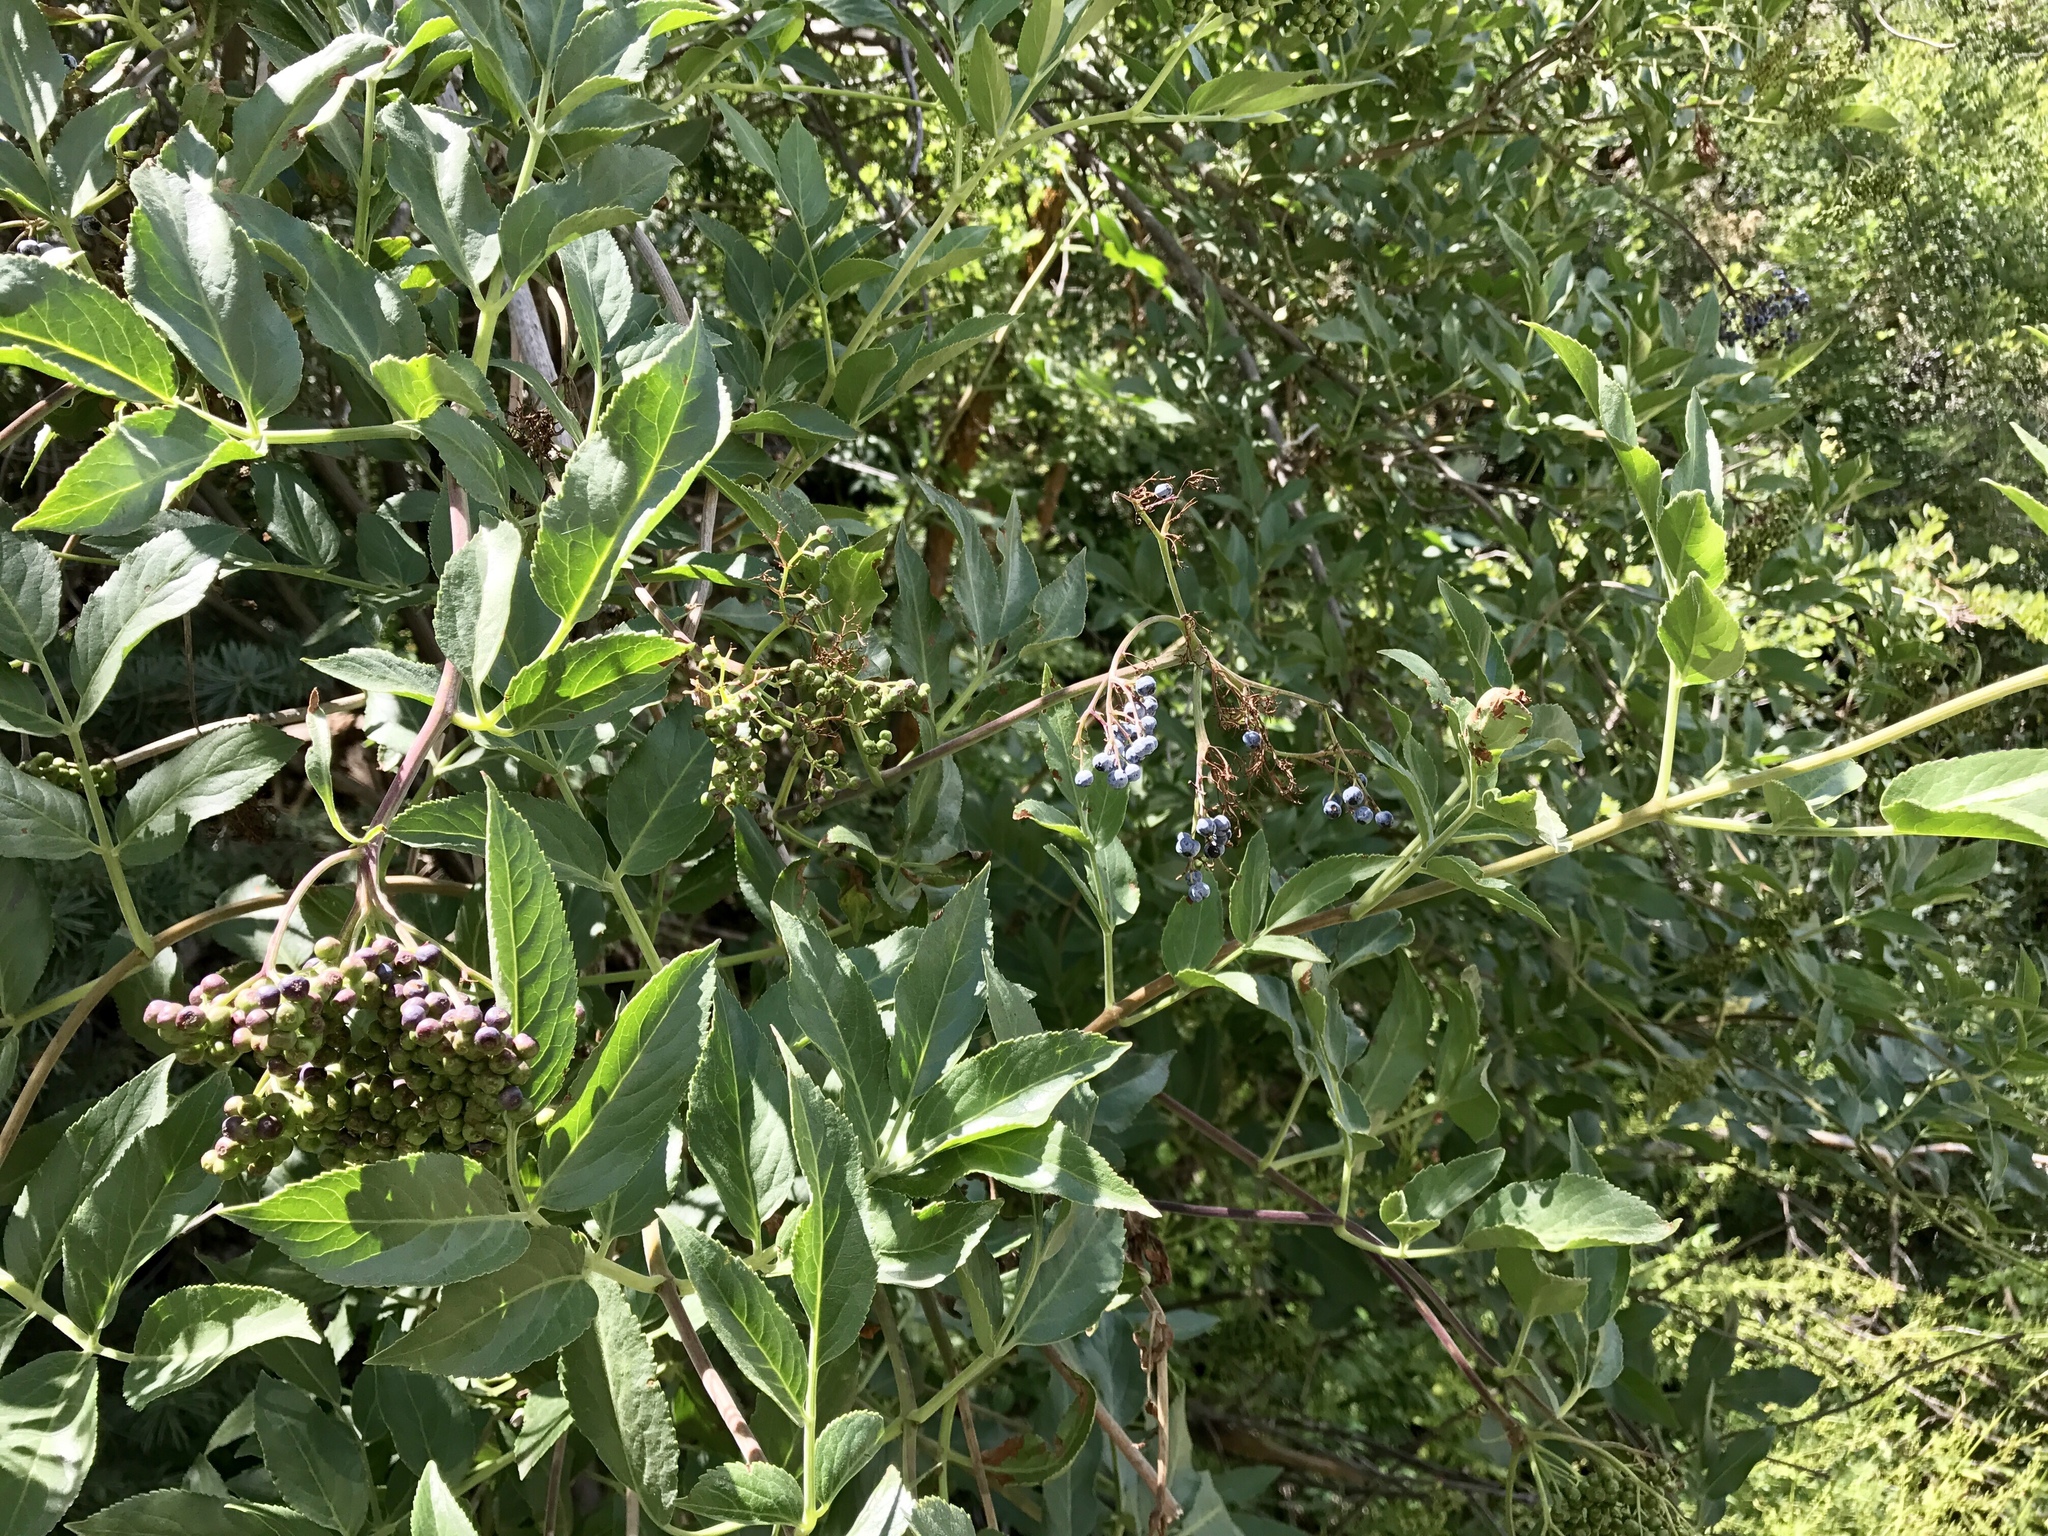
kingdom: Plantae
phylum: Tracheophyta
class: Magnoliopsida
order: Dipsacales
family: Viburnaceae
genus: Sambucus
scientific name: Sambucus cerulea
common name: Blue elder
